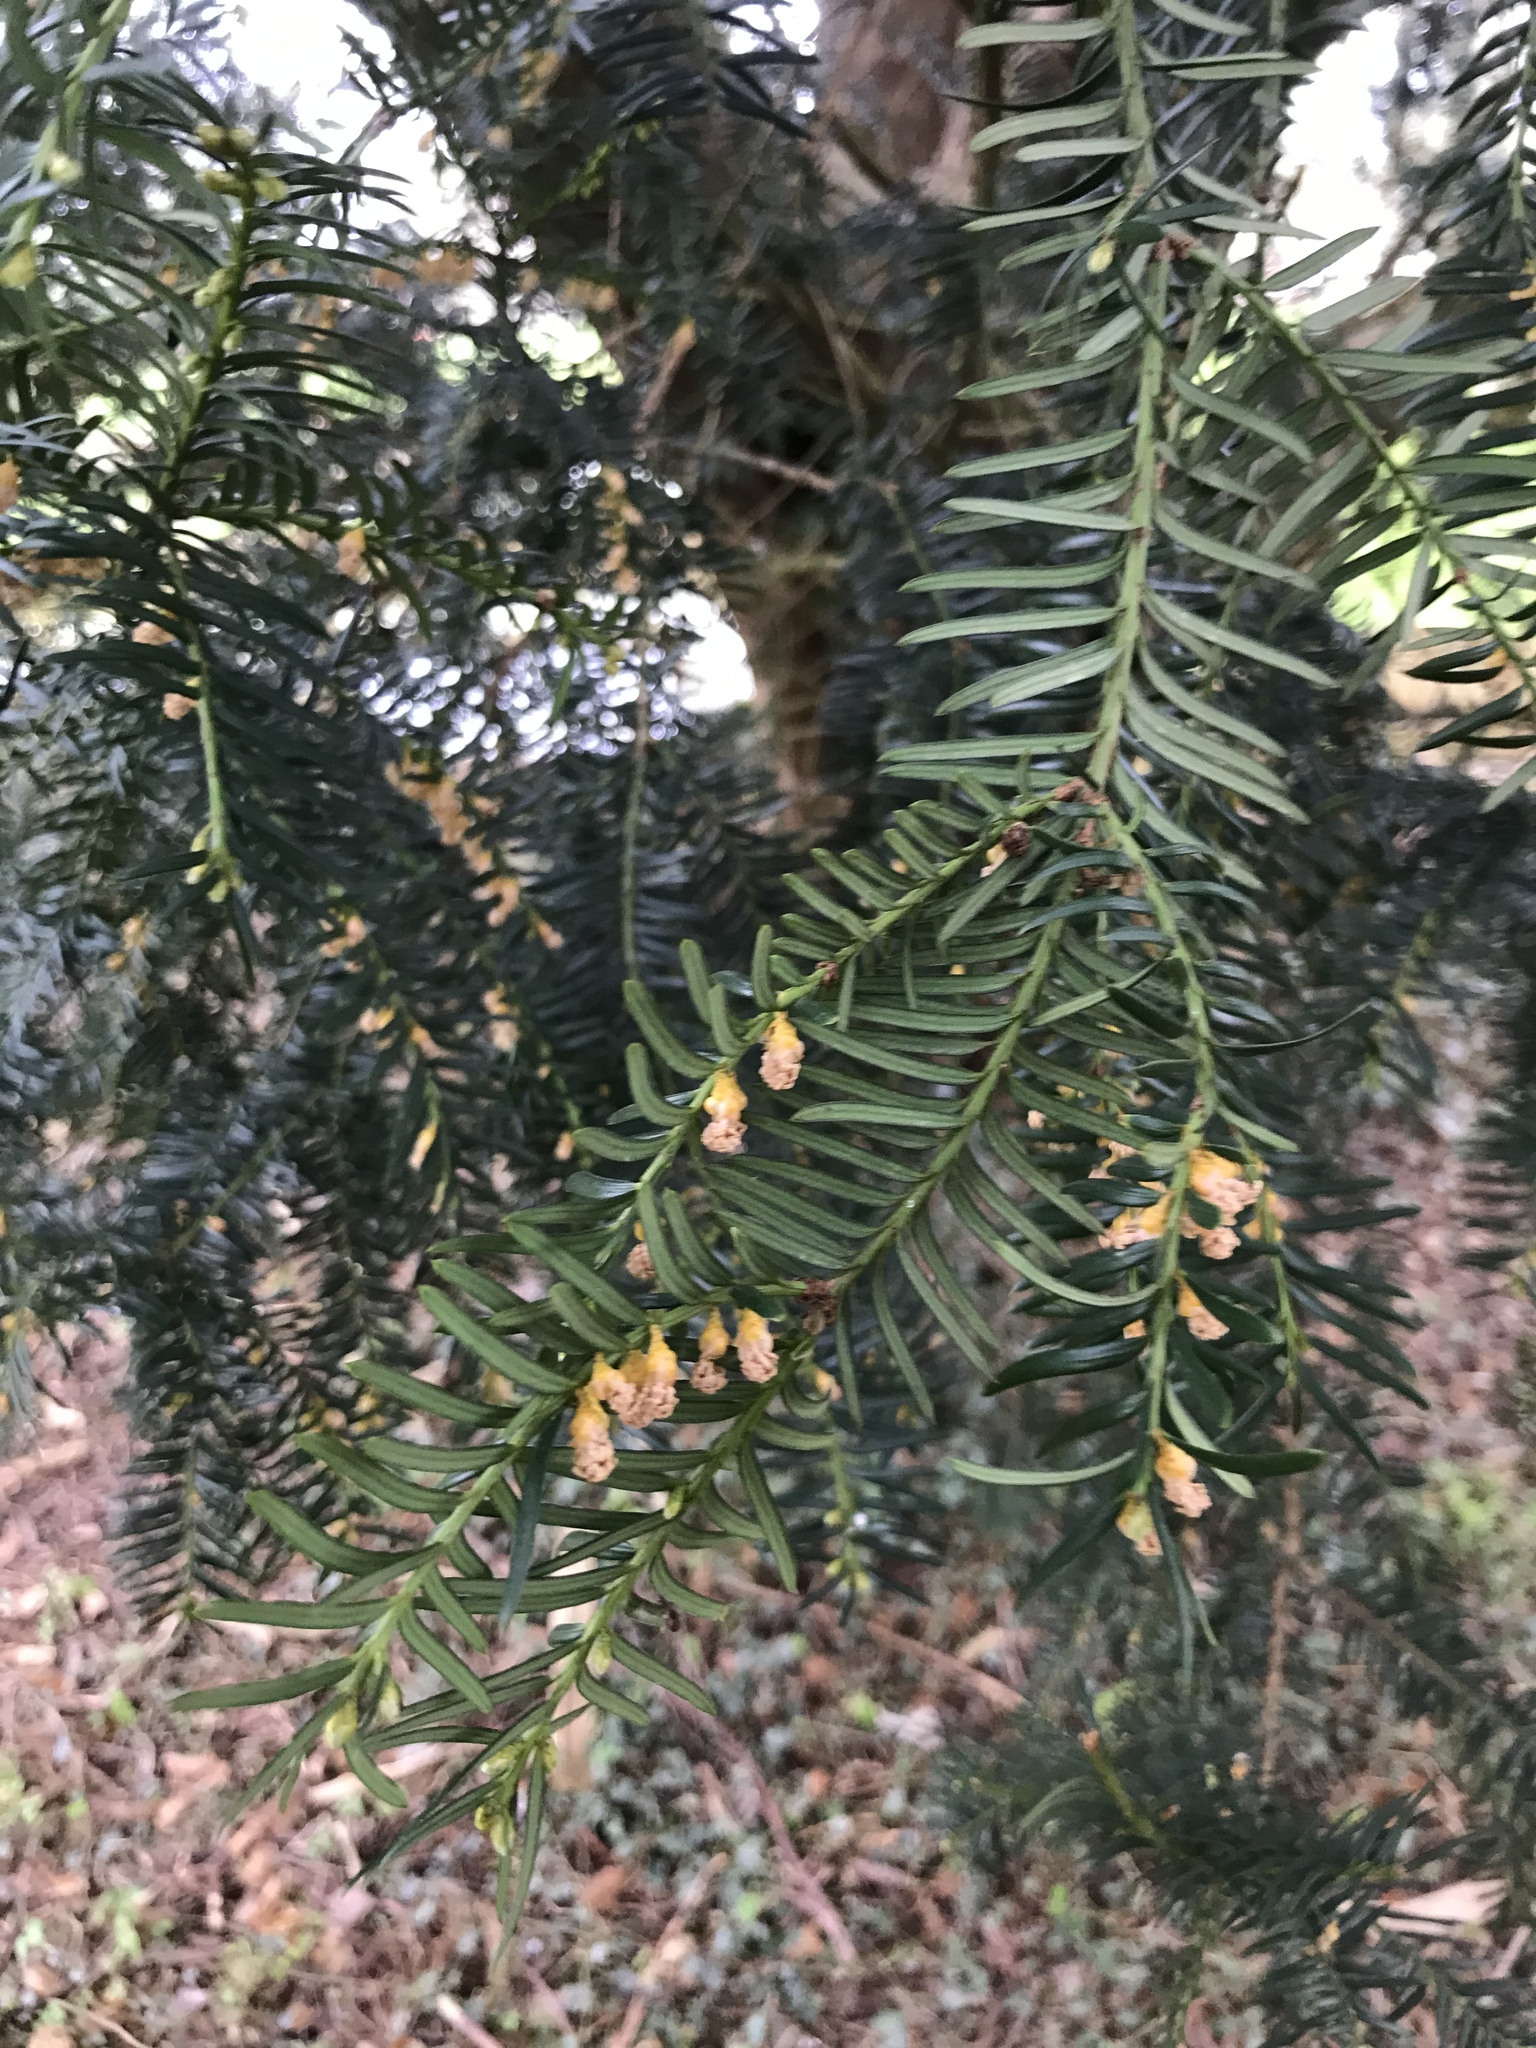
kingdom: Plantae
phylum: Tracheophyta
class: Pinopsida
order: Pinales
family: Taxaceae
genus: Taxus
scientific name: Taxus baccata
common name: Yew
